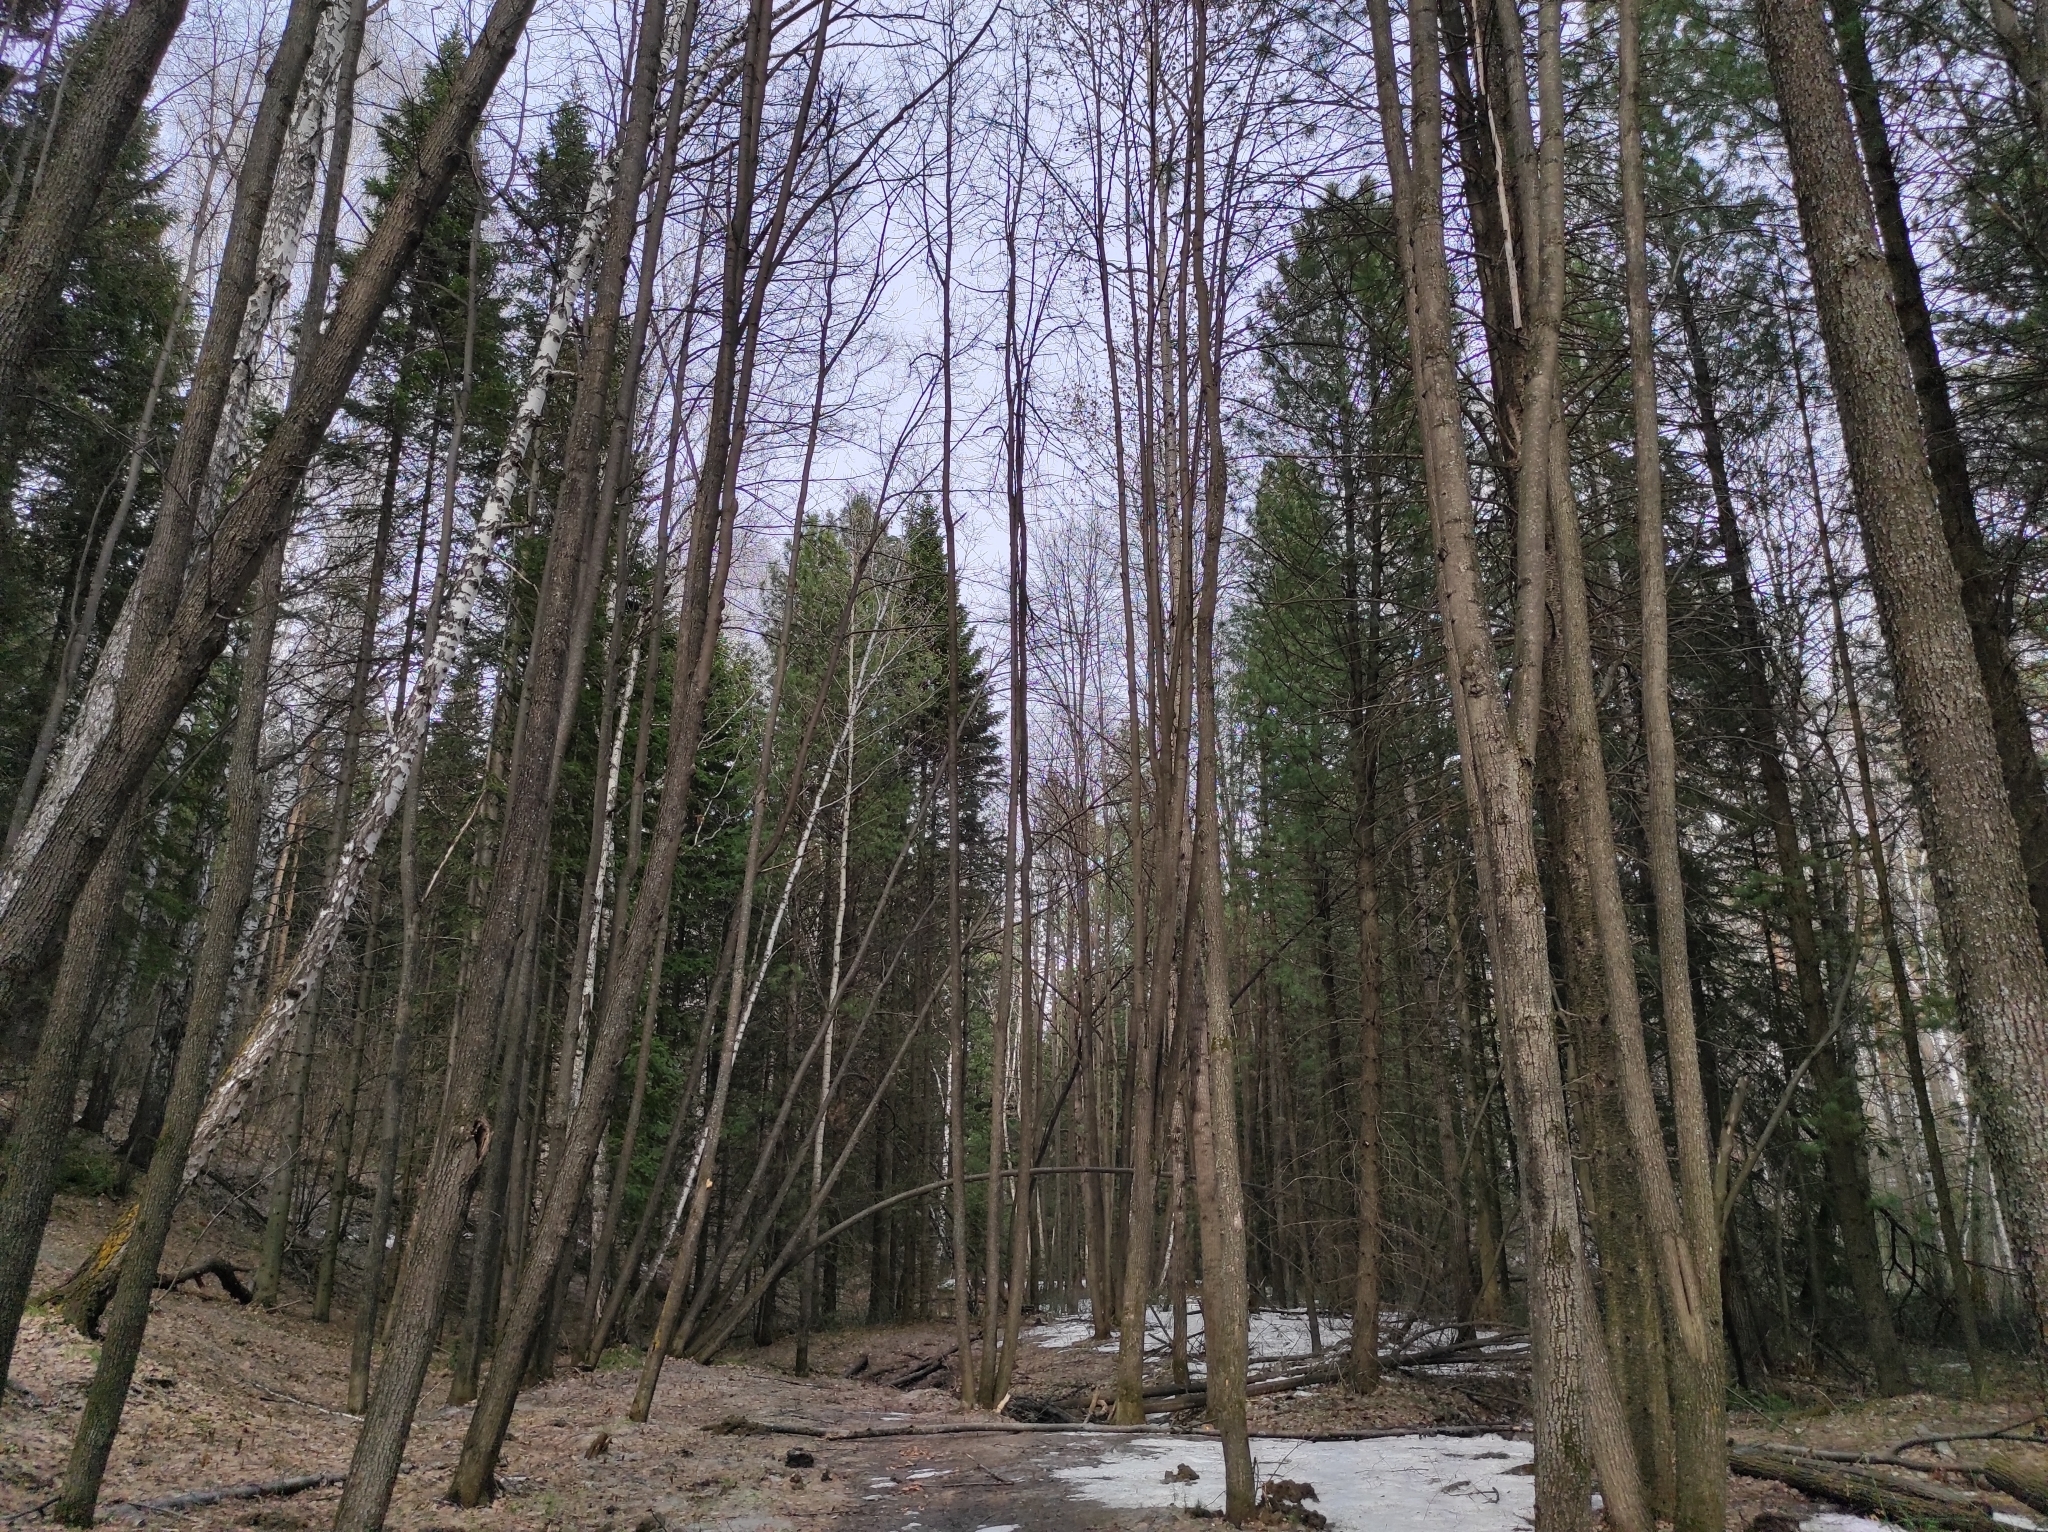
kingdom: Plantae
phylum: Tracheophyta
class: Liliopsida
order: Liliales
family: Liliaceae
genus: Erythronium
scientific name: Erythronium sibiricum
